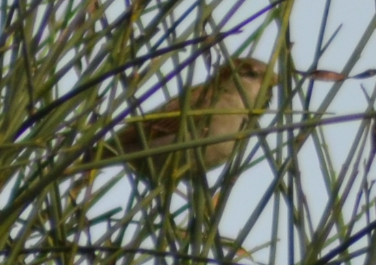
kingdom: Animalia
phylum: Chordata
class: Aves
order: Passeriformes
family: Passeridae
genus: Passer
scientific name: Passer domesticus
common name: House sparrow
